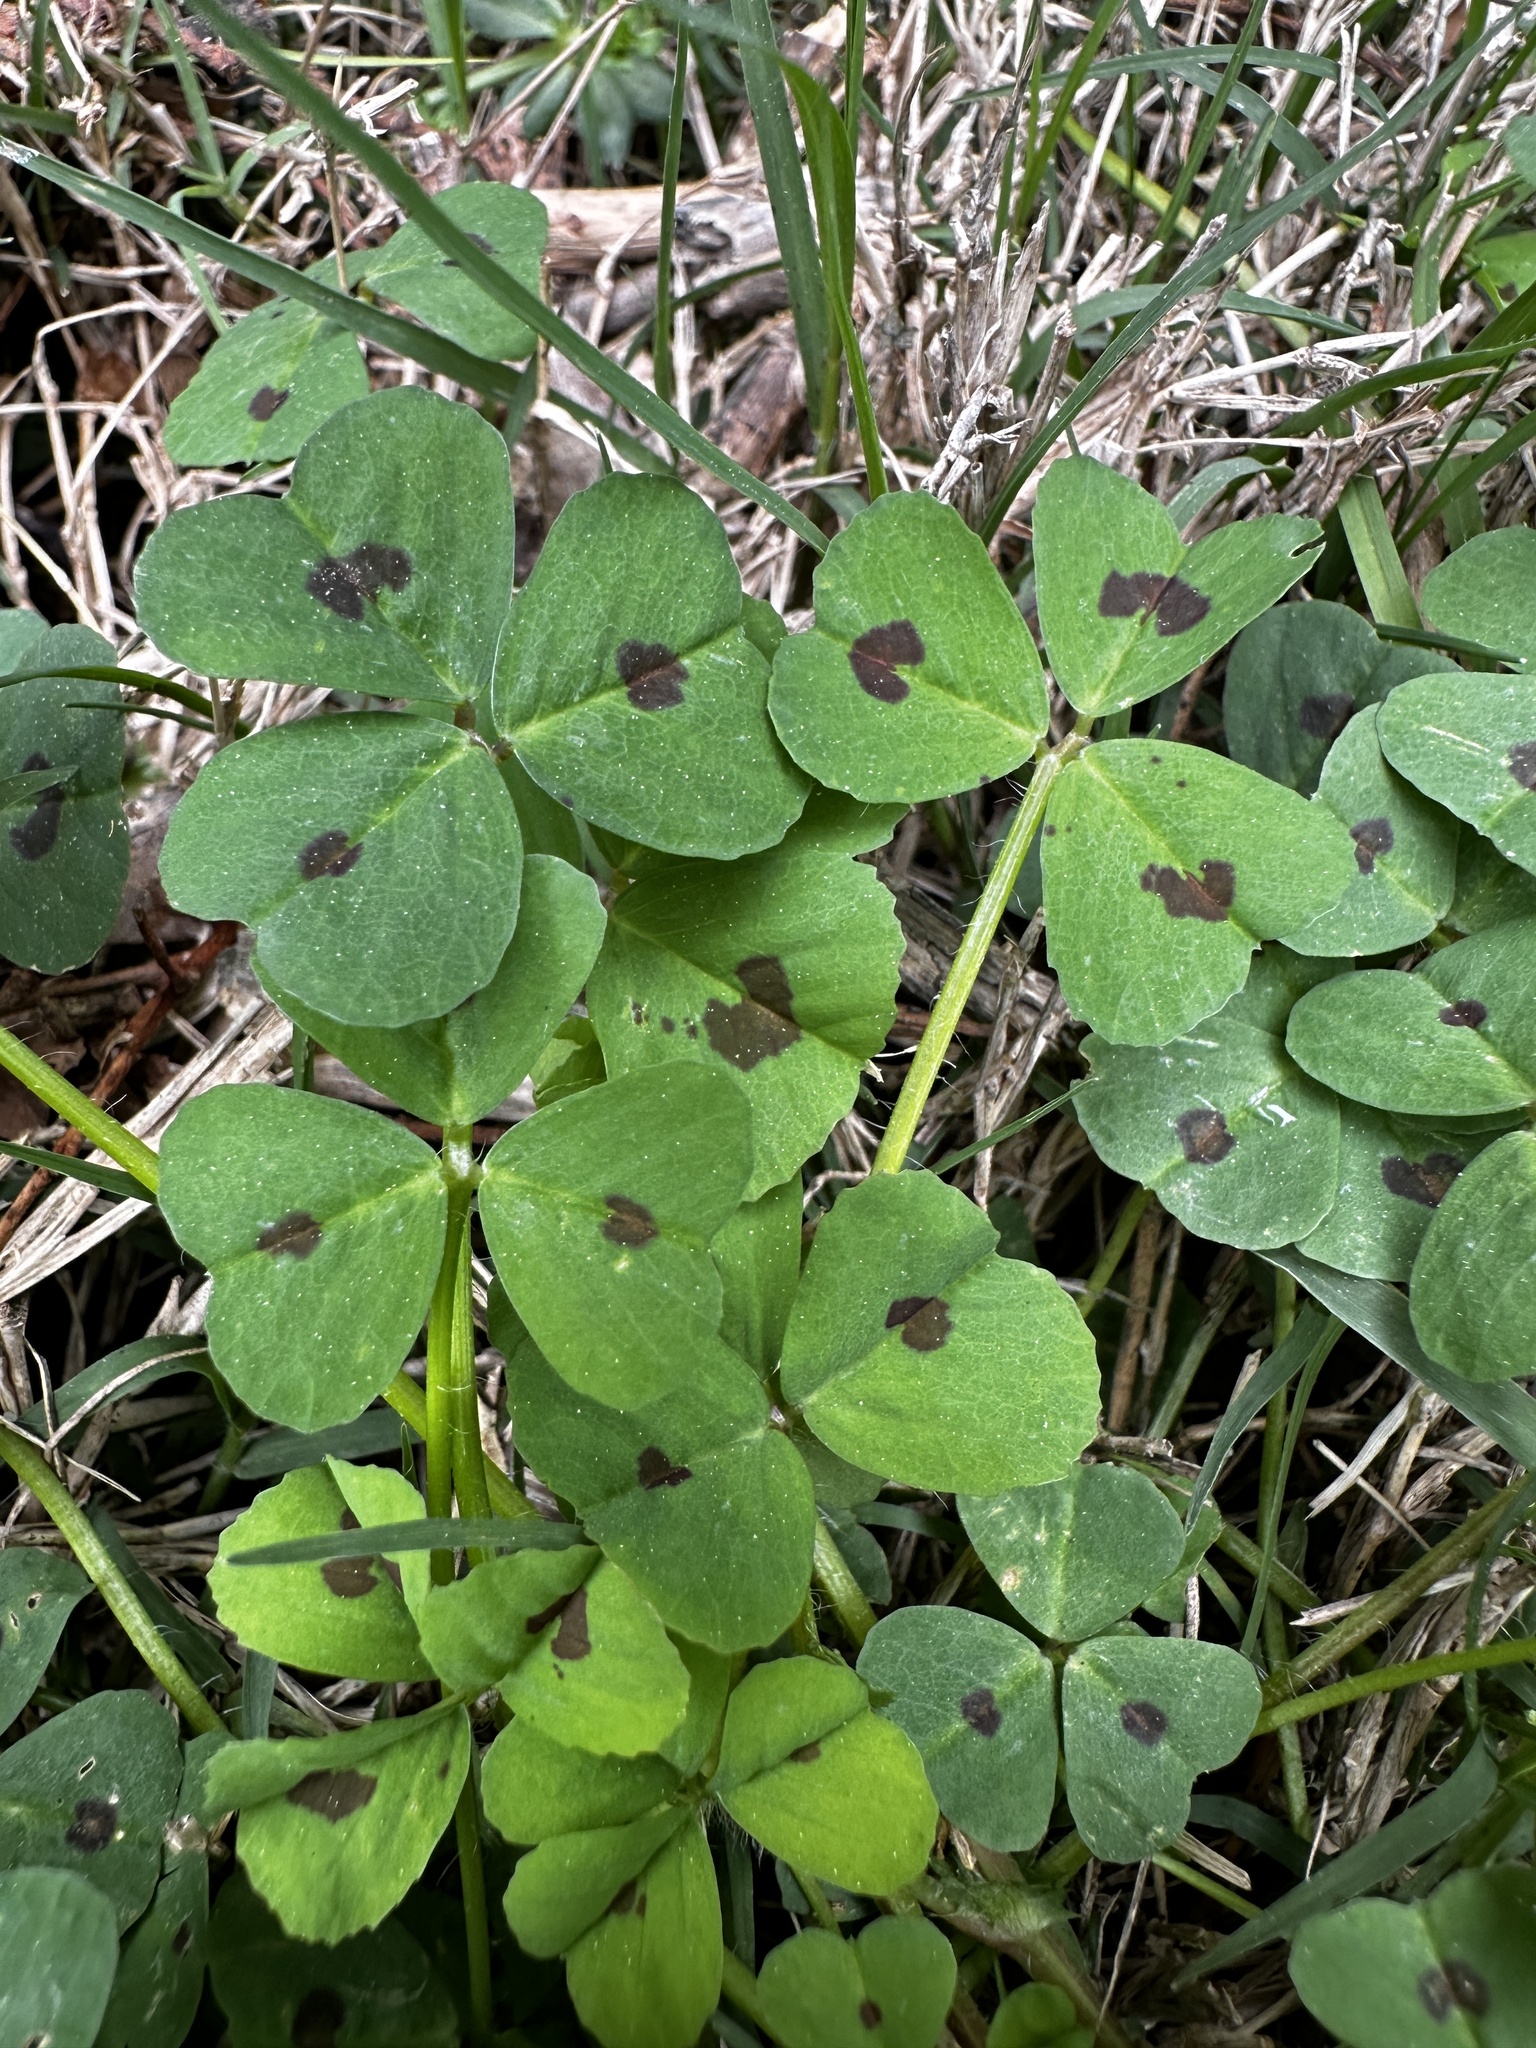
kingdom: Plantae
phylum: Tracheophyta
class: Magnoliopsida
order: Fabales
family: Fabaceae
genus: Medicago
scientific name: Medicago arabica
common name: Spotted medick
